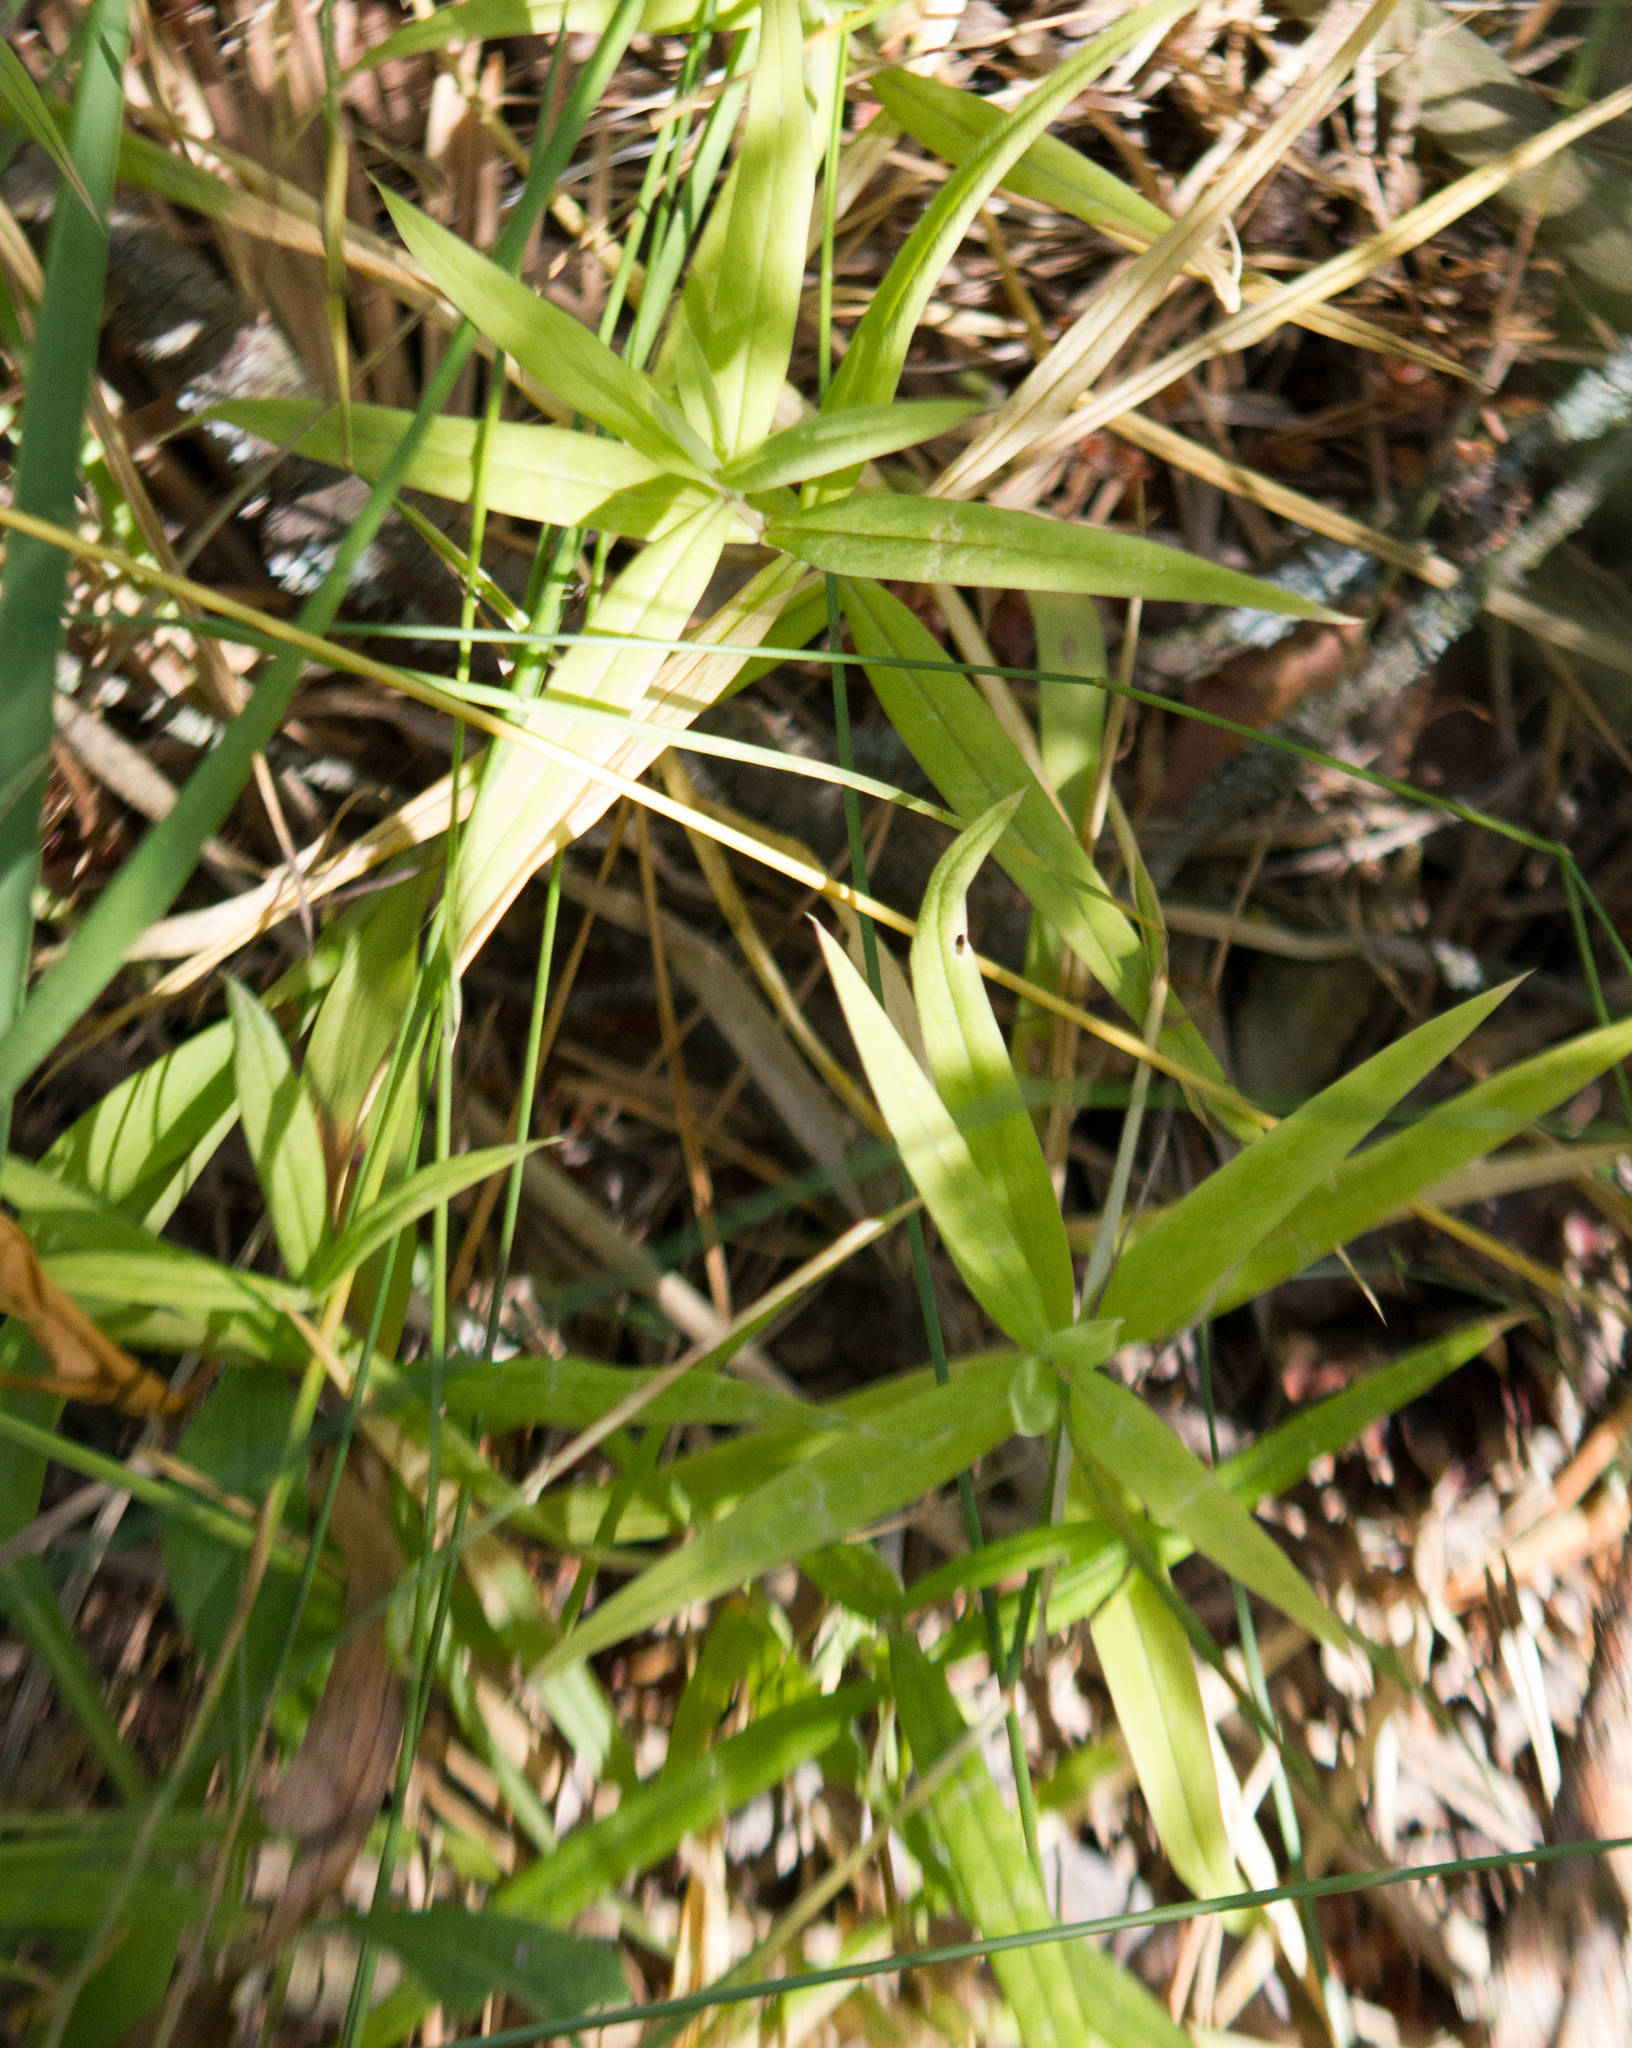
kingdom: Plantae
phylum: Tracheophyta
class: Magnoliopsida
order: Caryophyllales
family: Caryophyllaceae
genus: Rabelera
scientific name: Rabelera holostea
